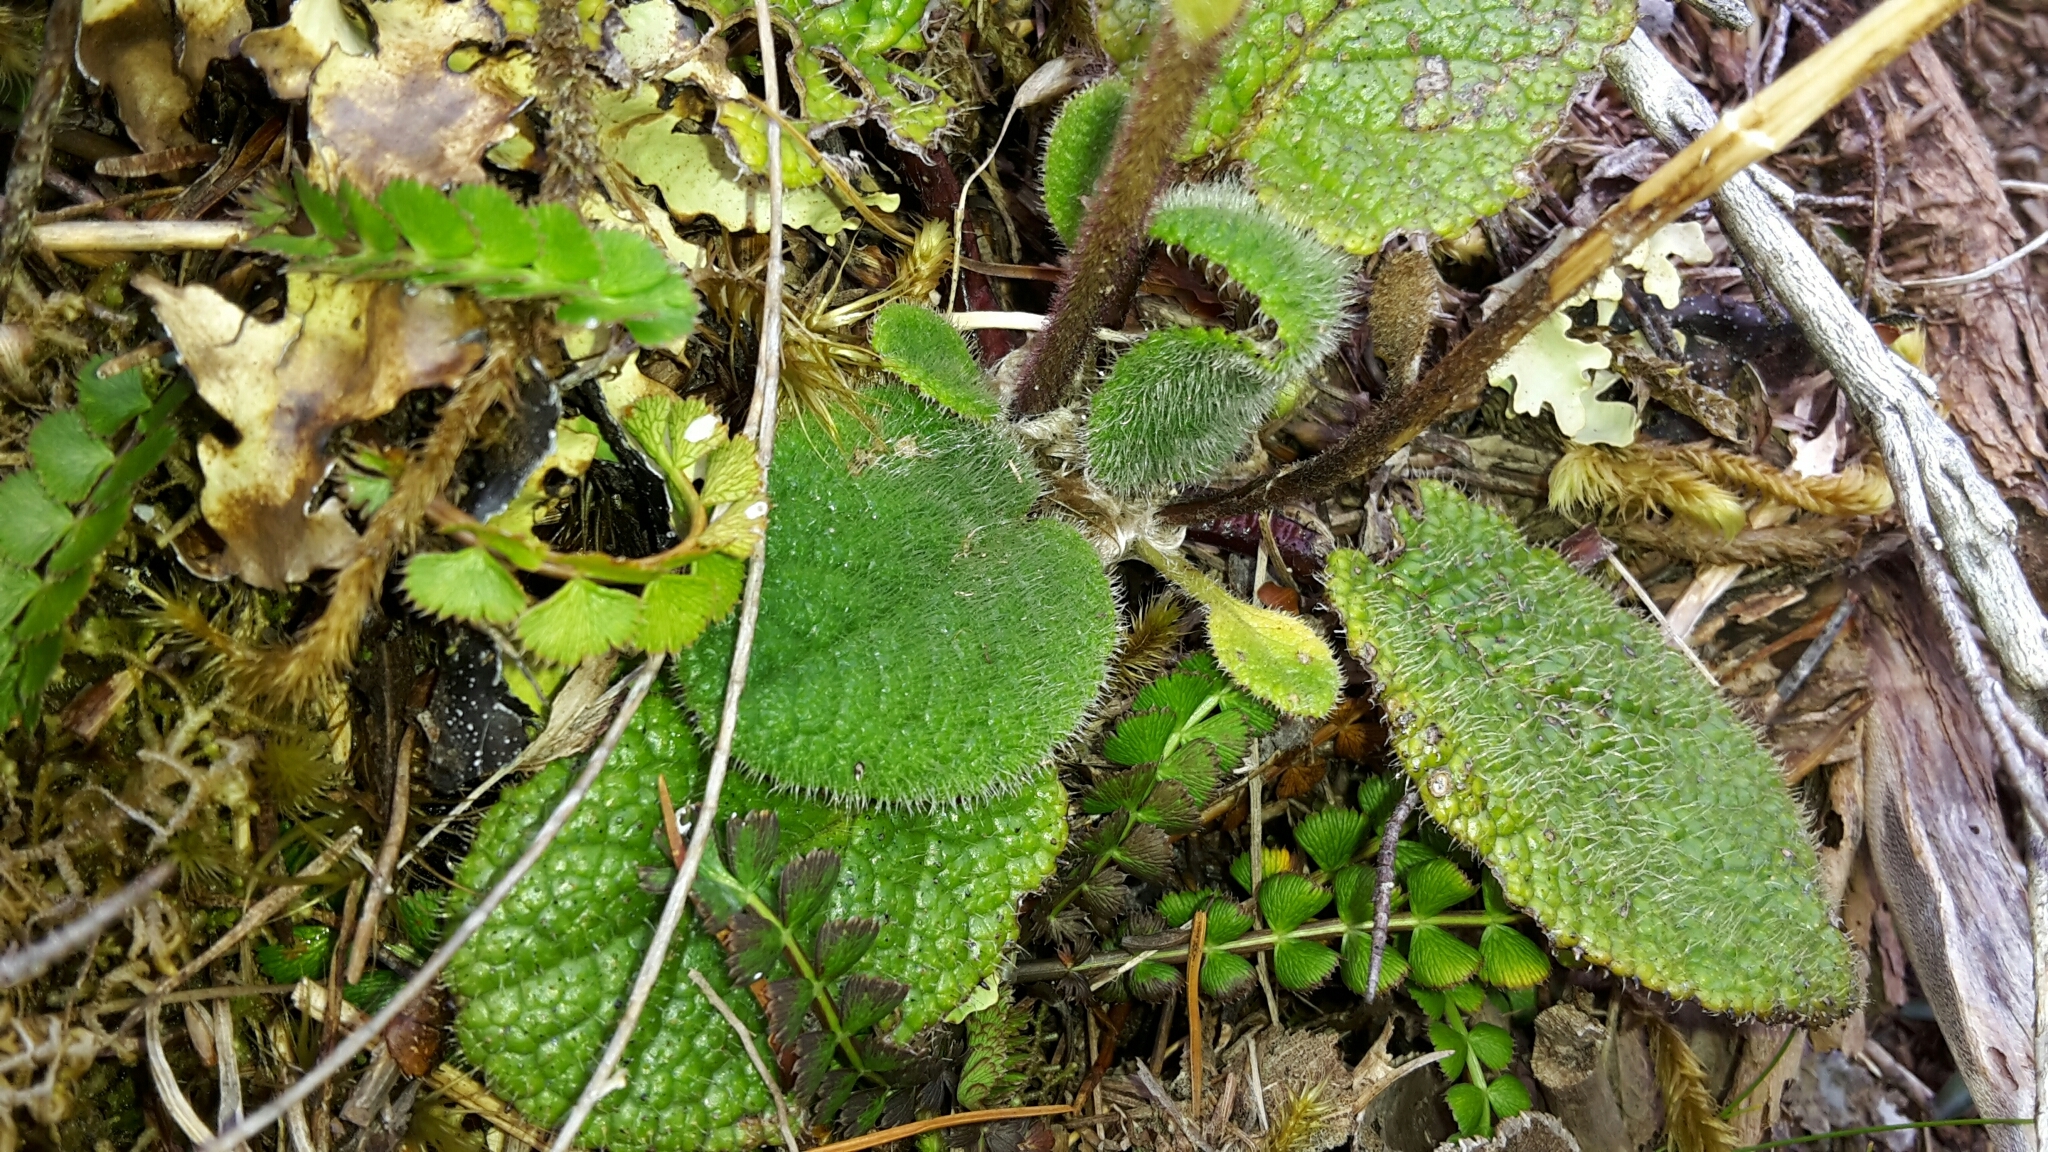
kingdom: Plantae
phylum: Tracheophyta
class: Magnoliopsida
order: Asterales
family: Asteraceae
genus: Brachyglottis
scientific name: Brachyglottis lagopus
